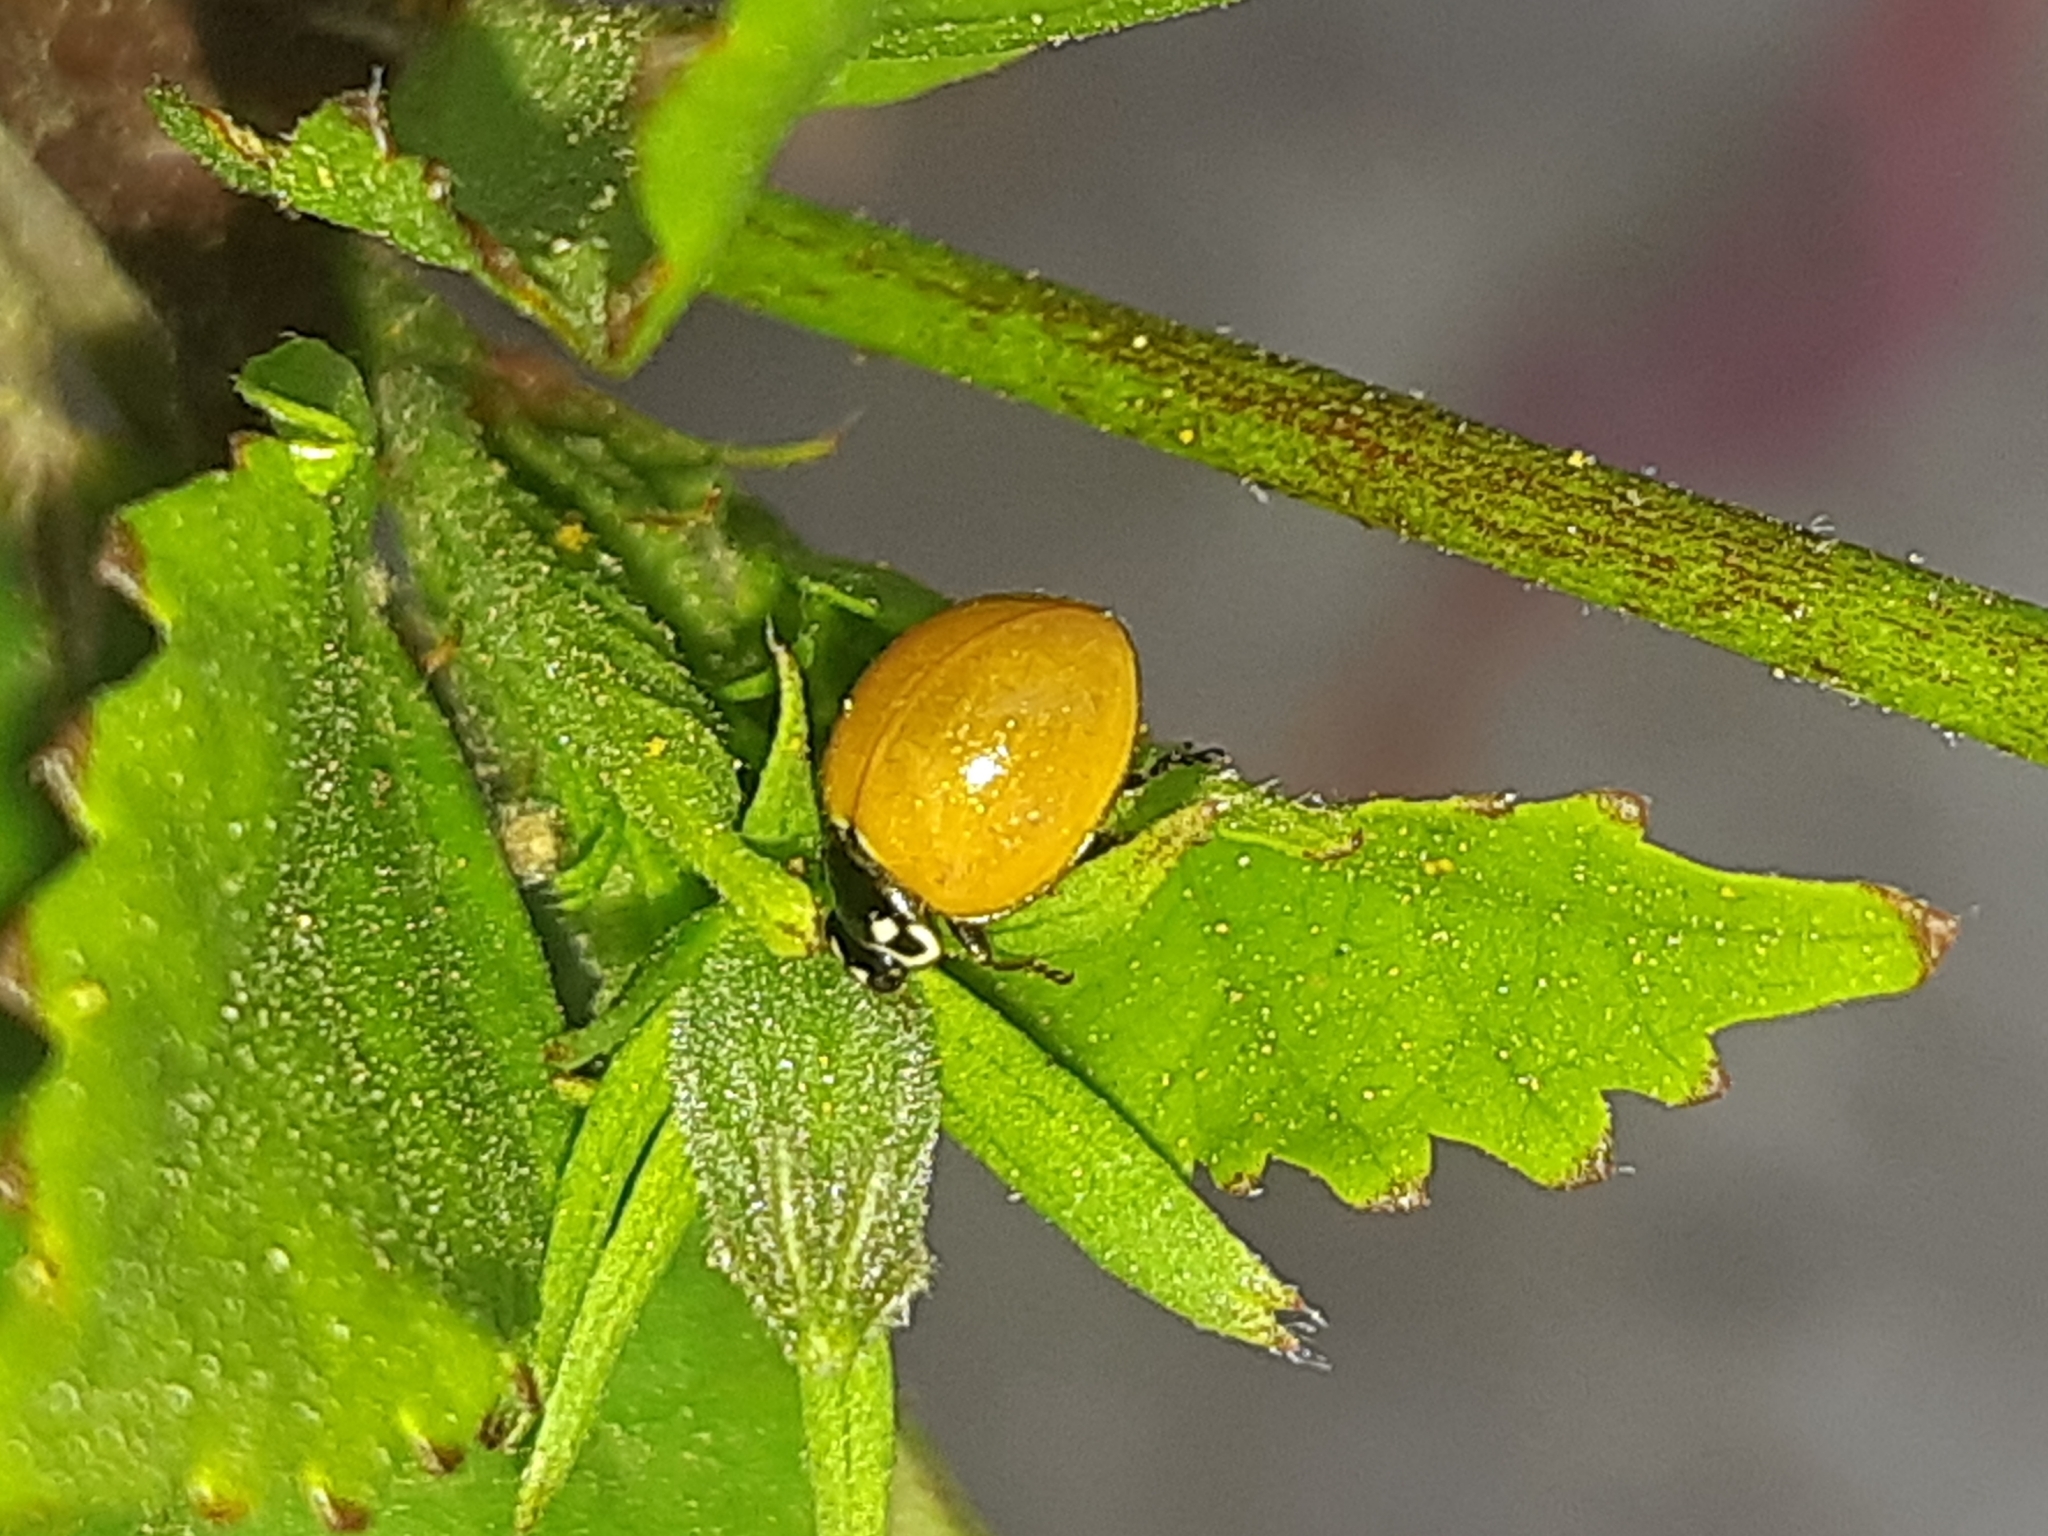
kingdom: Animalia
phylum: Arthropoda
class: Insecta
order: Coleoptera
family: Coccinellidae
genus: Cycloneda
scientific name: Cycloneda sanguinea
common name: Ladybird beetle
